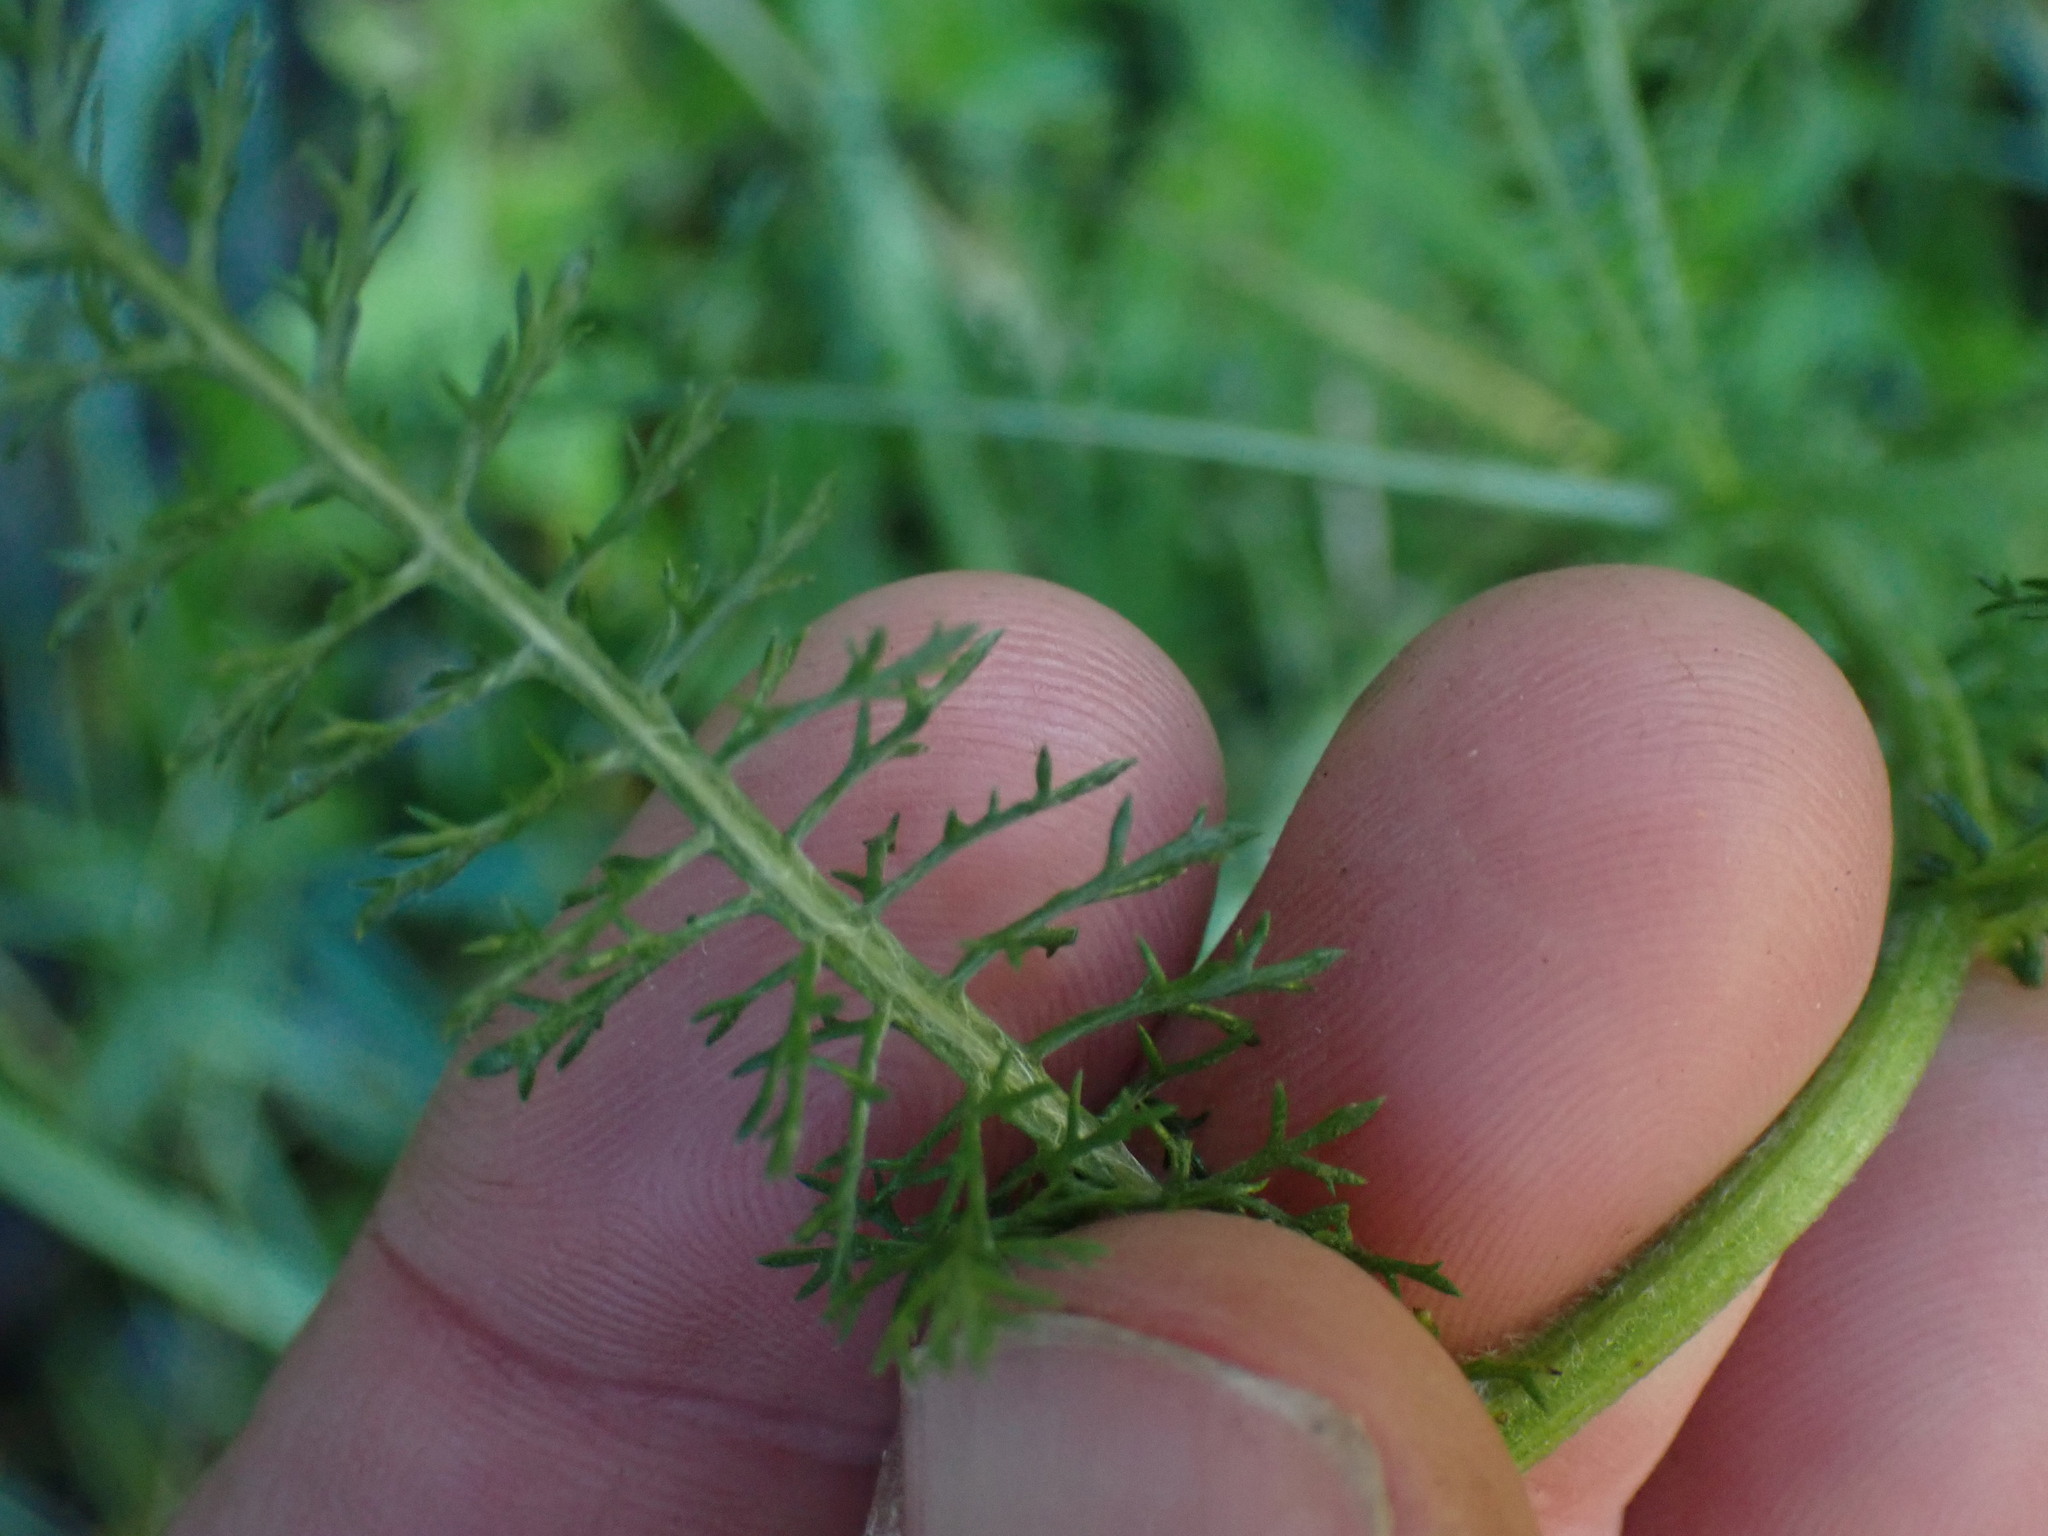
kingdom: Plantae
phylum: Tracheophyta
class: Magnoliopsida
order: Asterales
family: Asteraceae
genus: Achillea
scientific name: Achillea millefolium
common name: Yarrow
